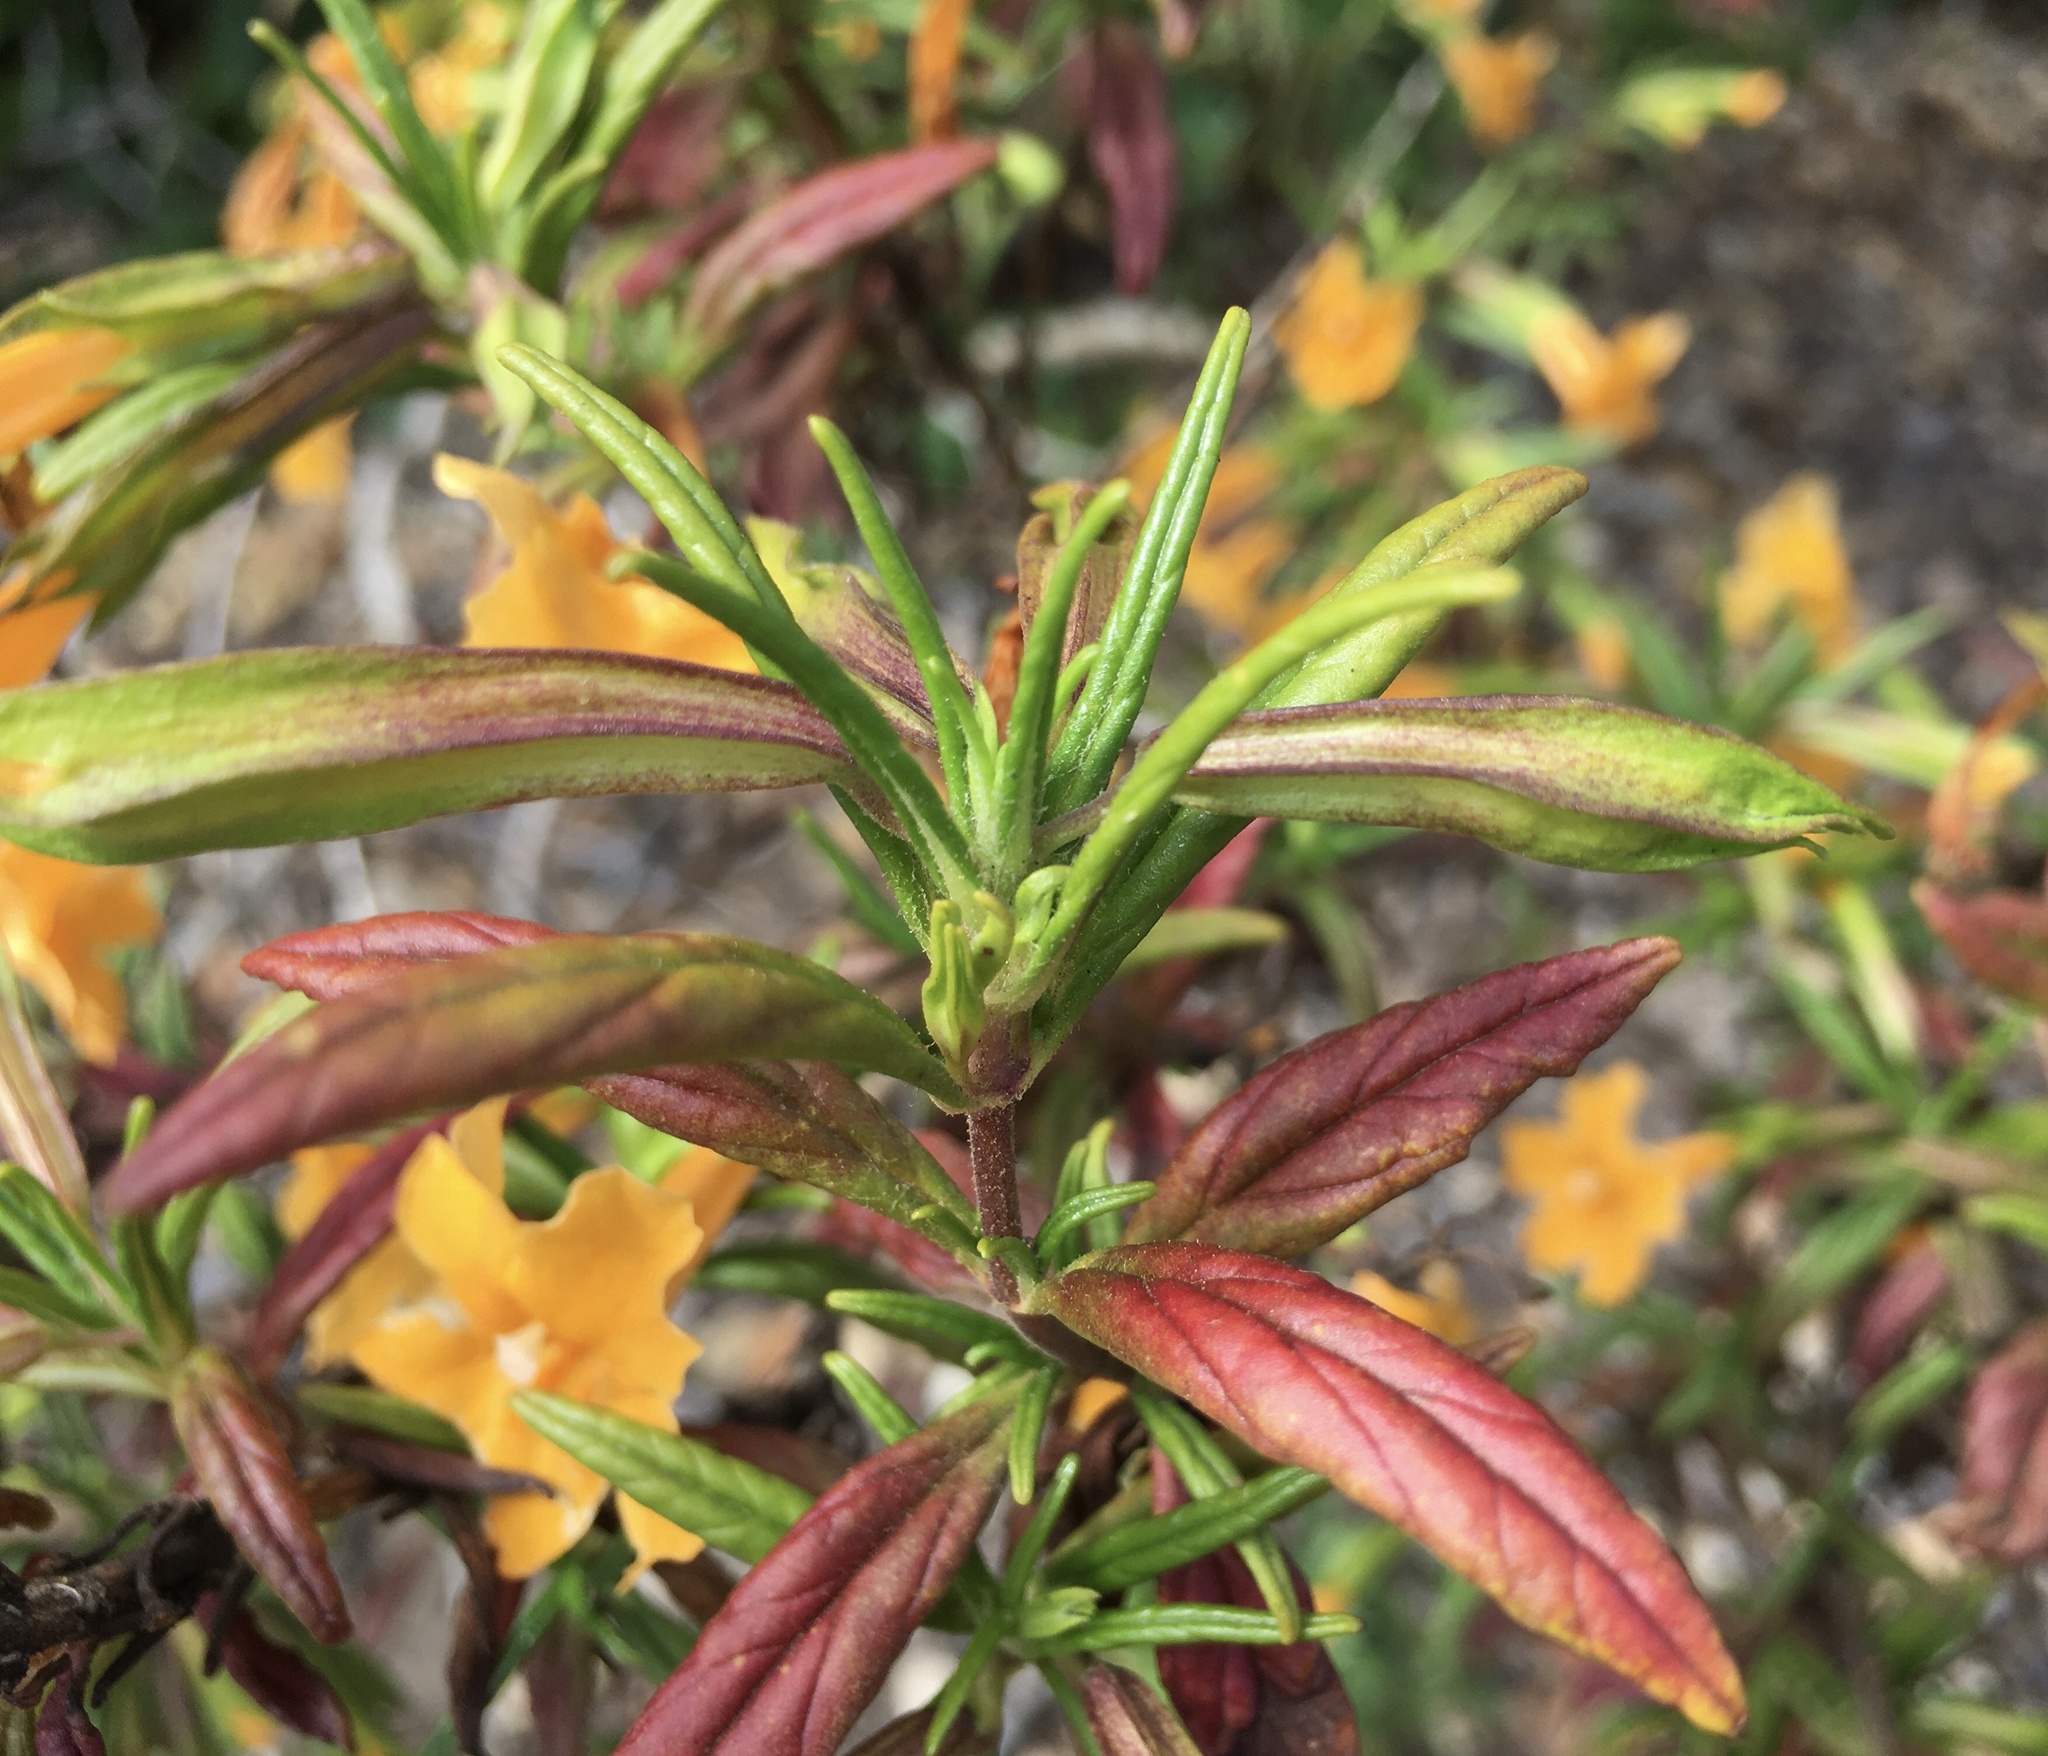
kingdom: Plantae
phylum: Tracheophyta
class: Magnoliopsida
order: Lamiales
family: Phrymaceae
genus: Diplacus
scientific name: Diplacus aurantiacus
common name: Bush monkey-flower
